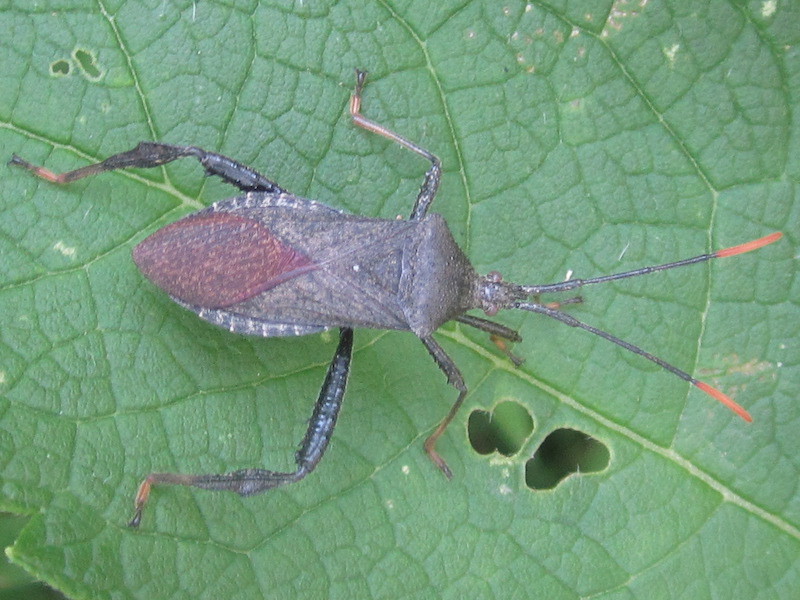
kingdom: Animalia
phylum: Arthropoda
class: Insecta
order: Hemiptera
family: Coreidae
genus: Acanthocephala
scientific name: Acanthocephala terminalis
